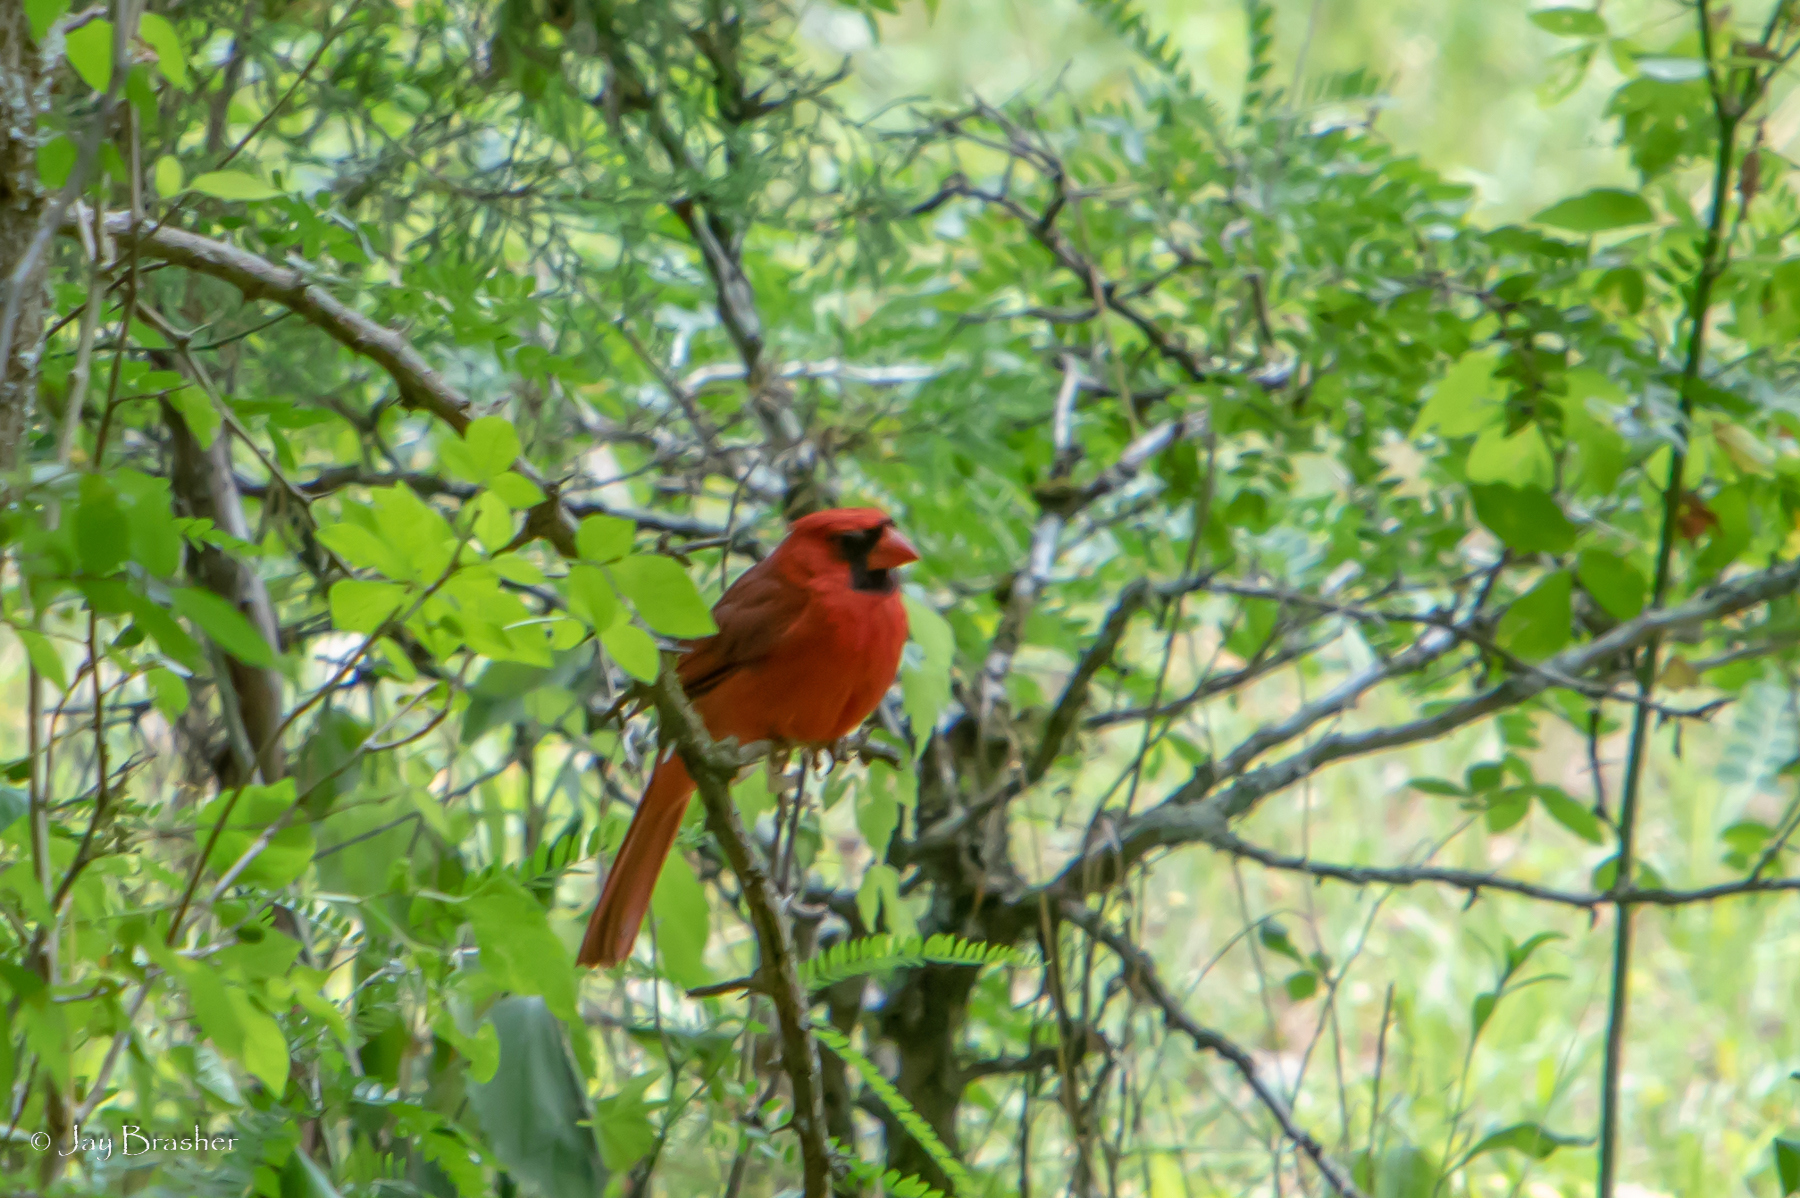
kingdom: Animalia
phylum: Chordata
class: Aves
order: Passeriformes
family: Cardinalidae
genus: Cardinalis
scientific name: Cardinalis cardinalis
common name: Northern cardinal
